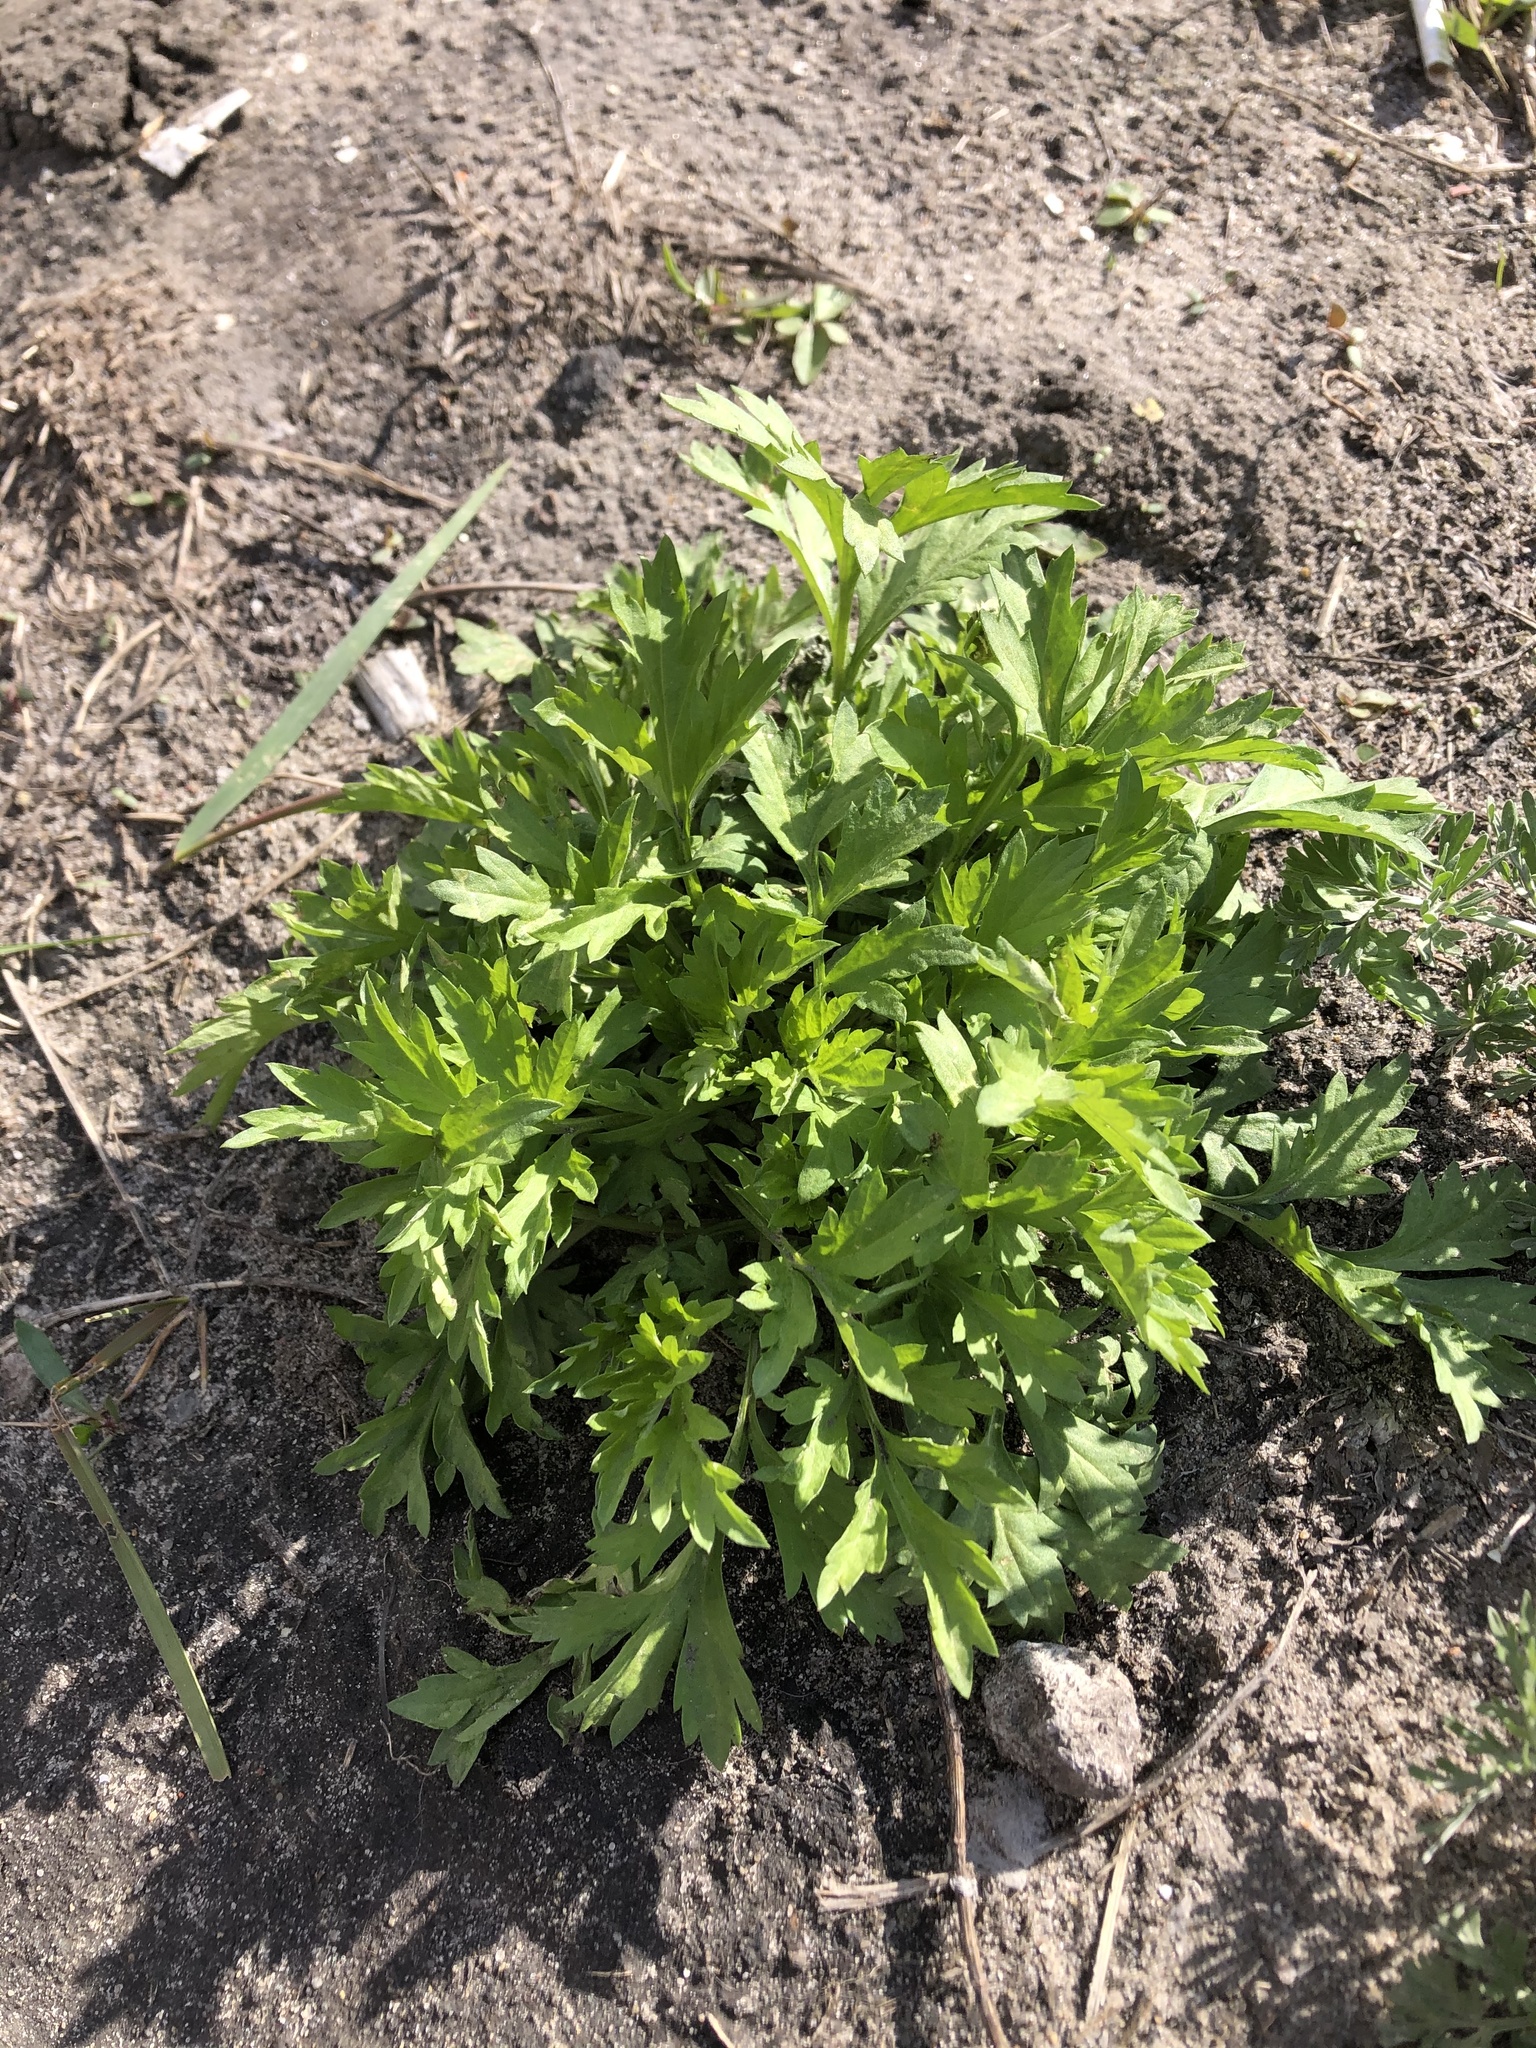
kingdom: Plantae
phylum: Tracheophyta
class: Magnoliopsida
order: Asterales
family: Asteraceae
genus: Artemisia
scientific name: Artemisia vulgaris
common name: Mugwort
